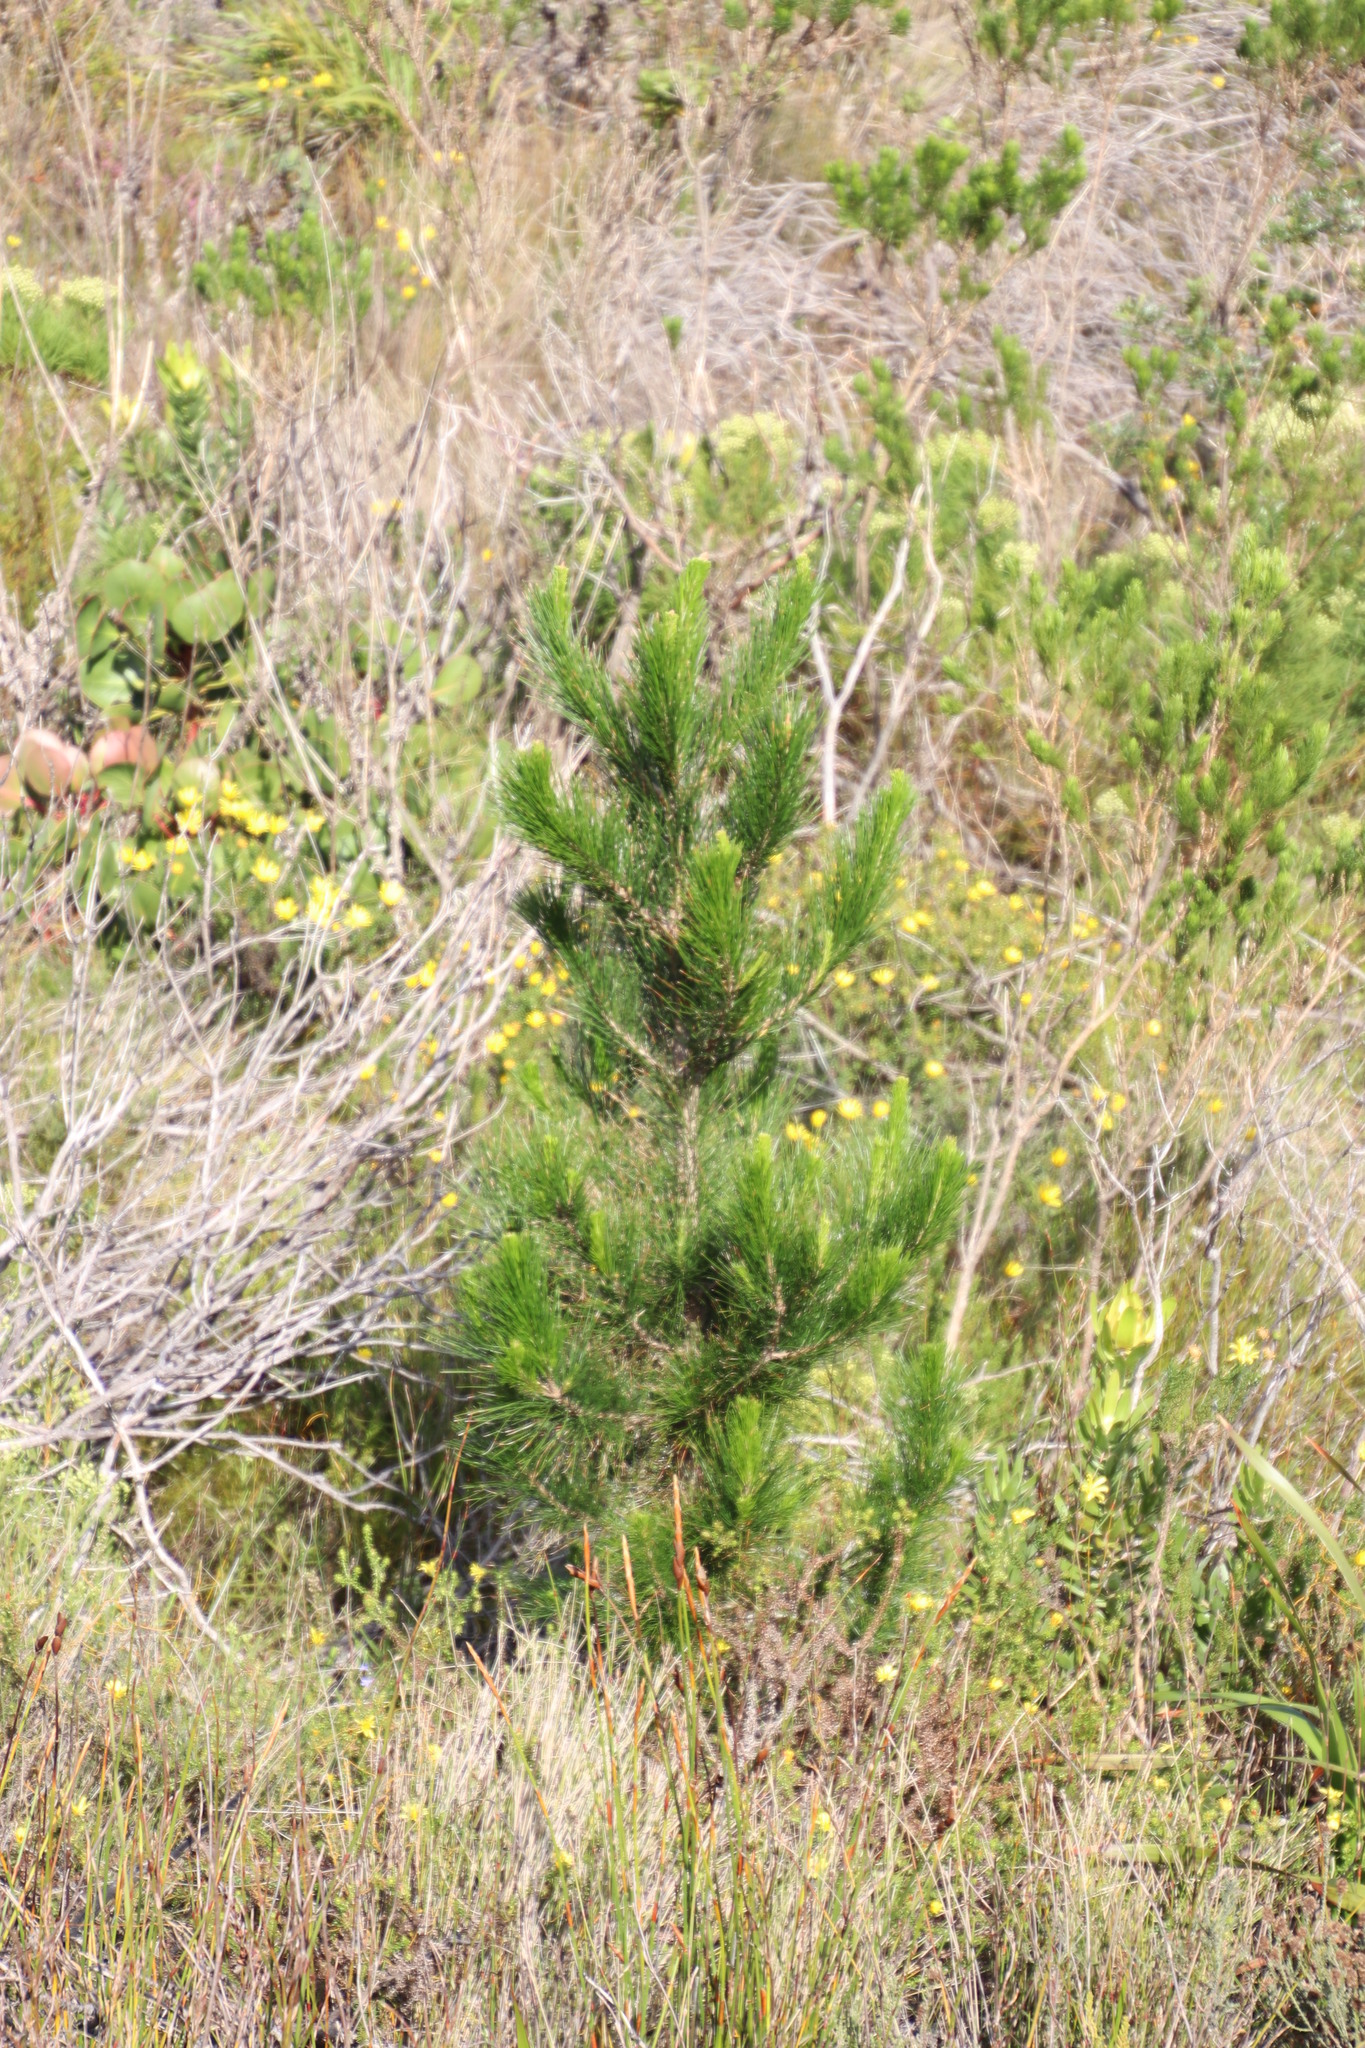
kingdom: Plantae
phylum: Tracheophyta
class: Pinopsida
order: Pinales
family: Pinaceae
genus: Pinus
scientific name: Pinus radiata
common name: Monterey pine
